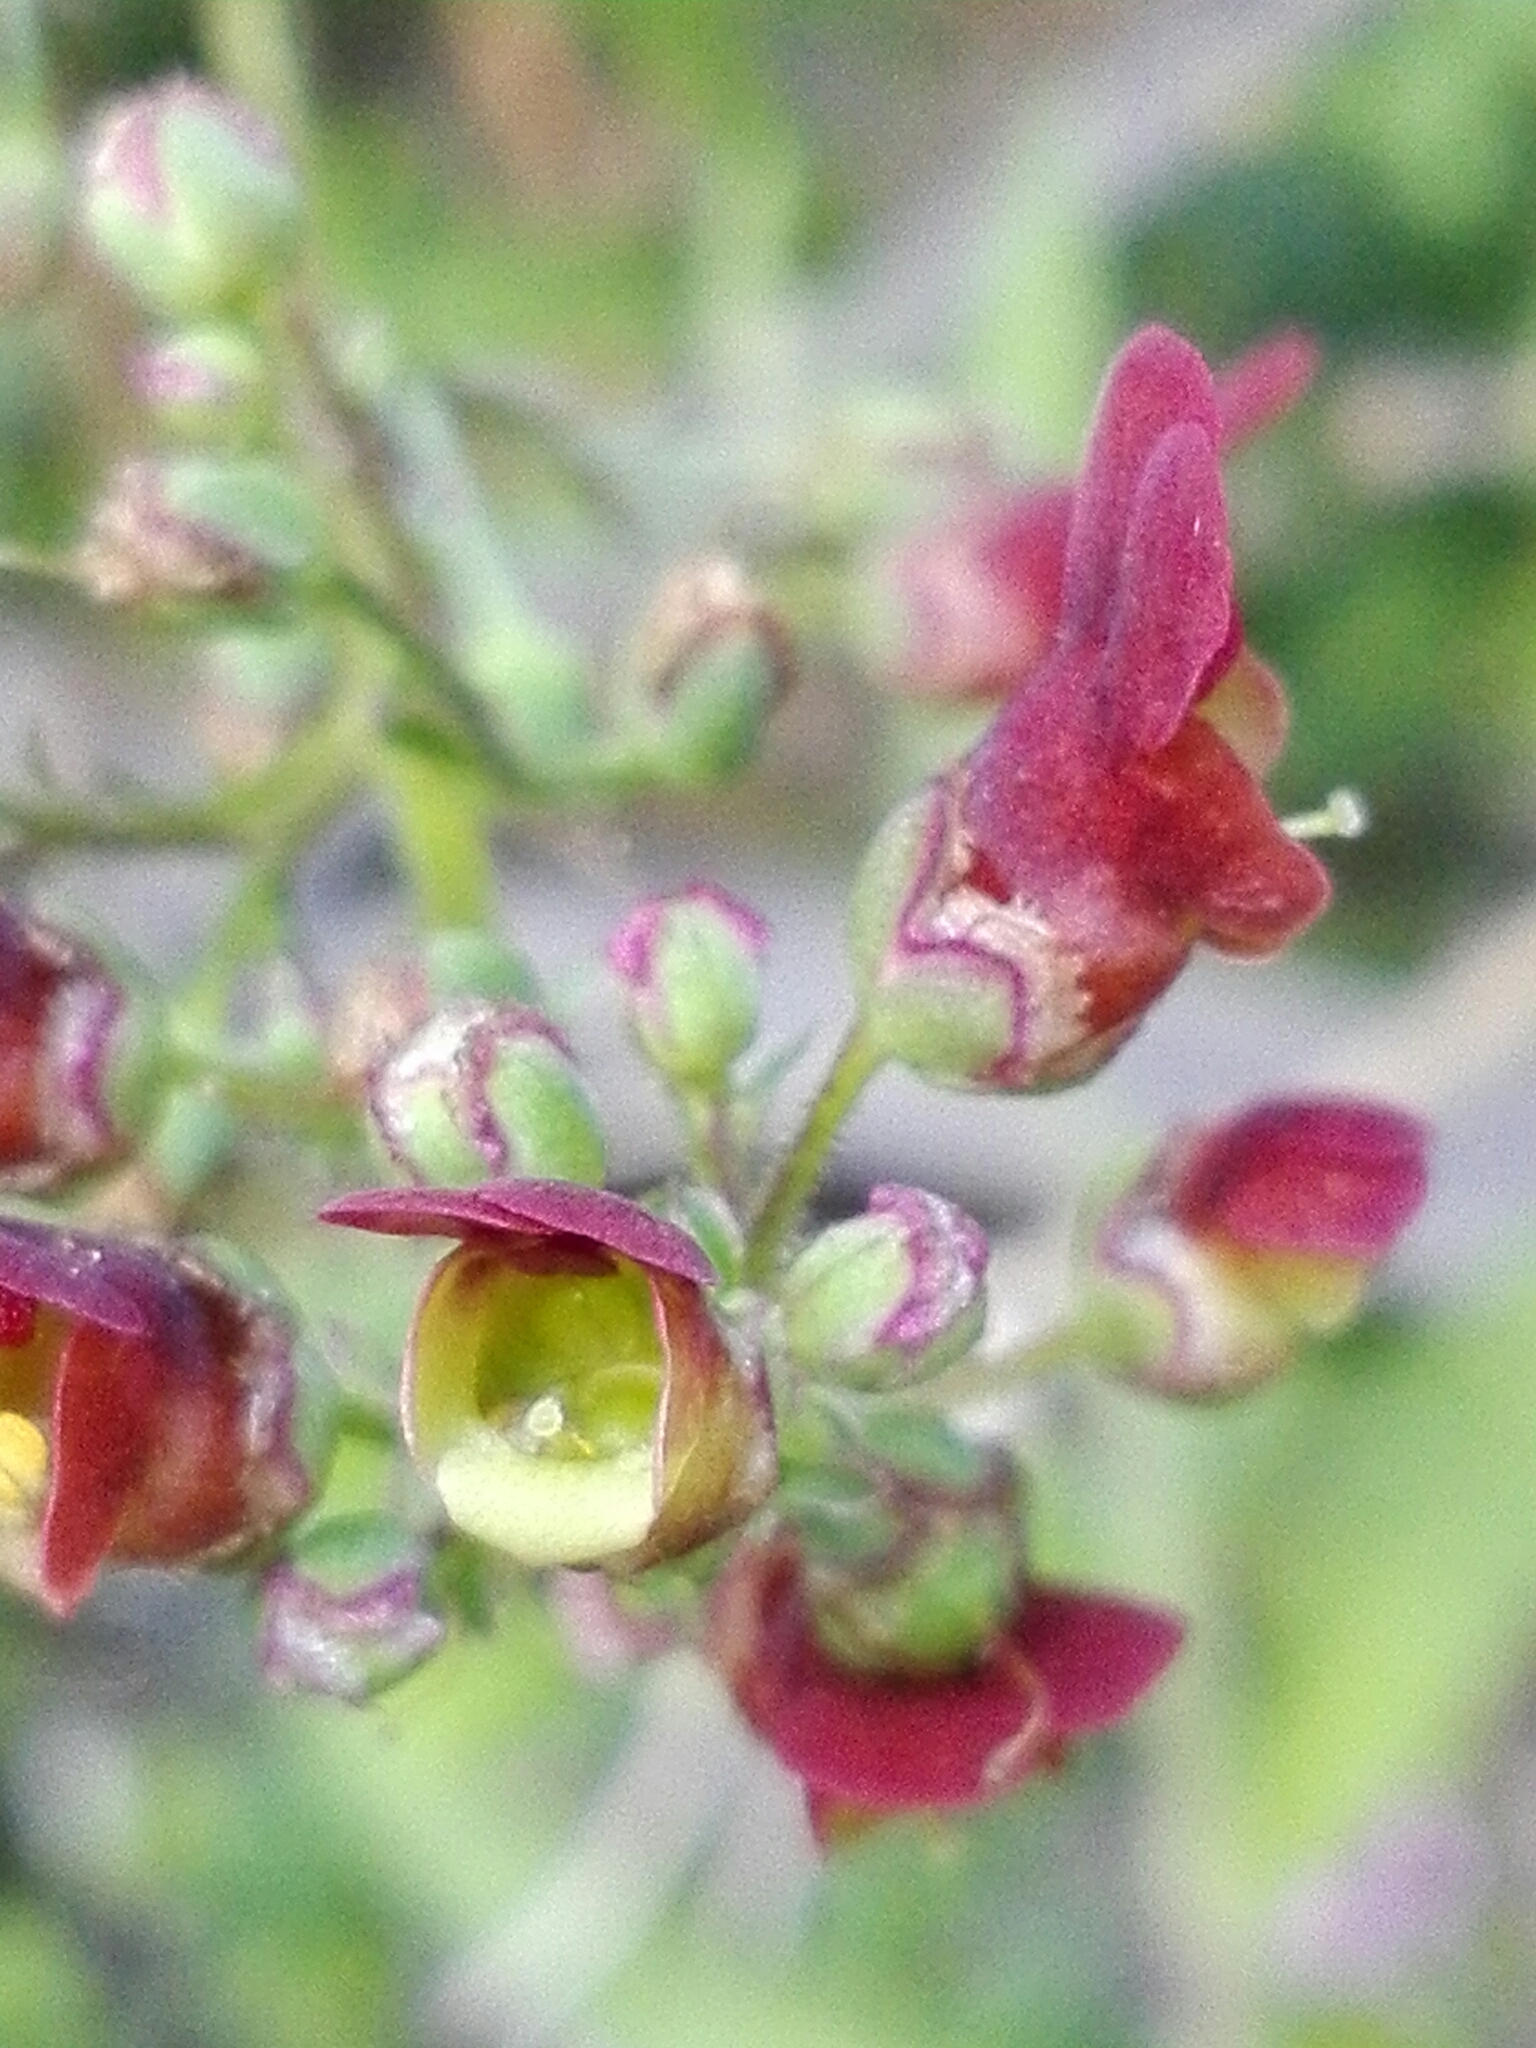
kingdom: Plantae
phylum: Tracheophyta
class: Magnoliopsida
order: Lamiales
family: Scrophulariaceae
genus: Scrophularia
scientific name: Scrophularia nodosa
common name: Common figwort
